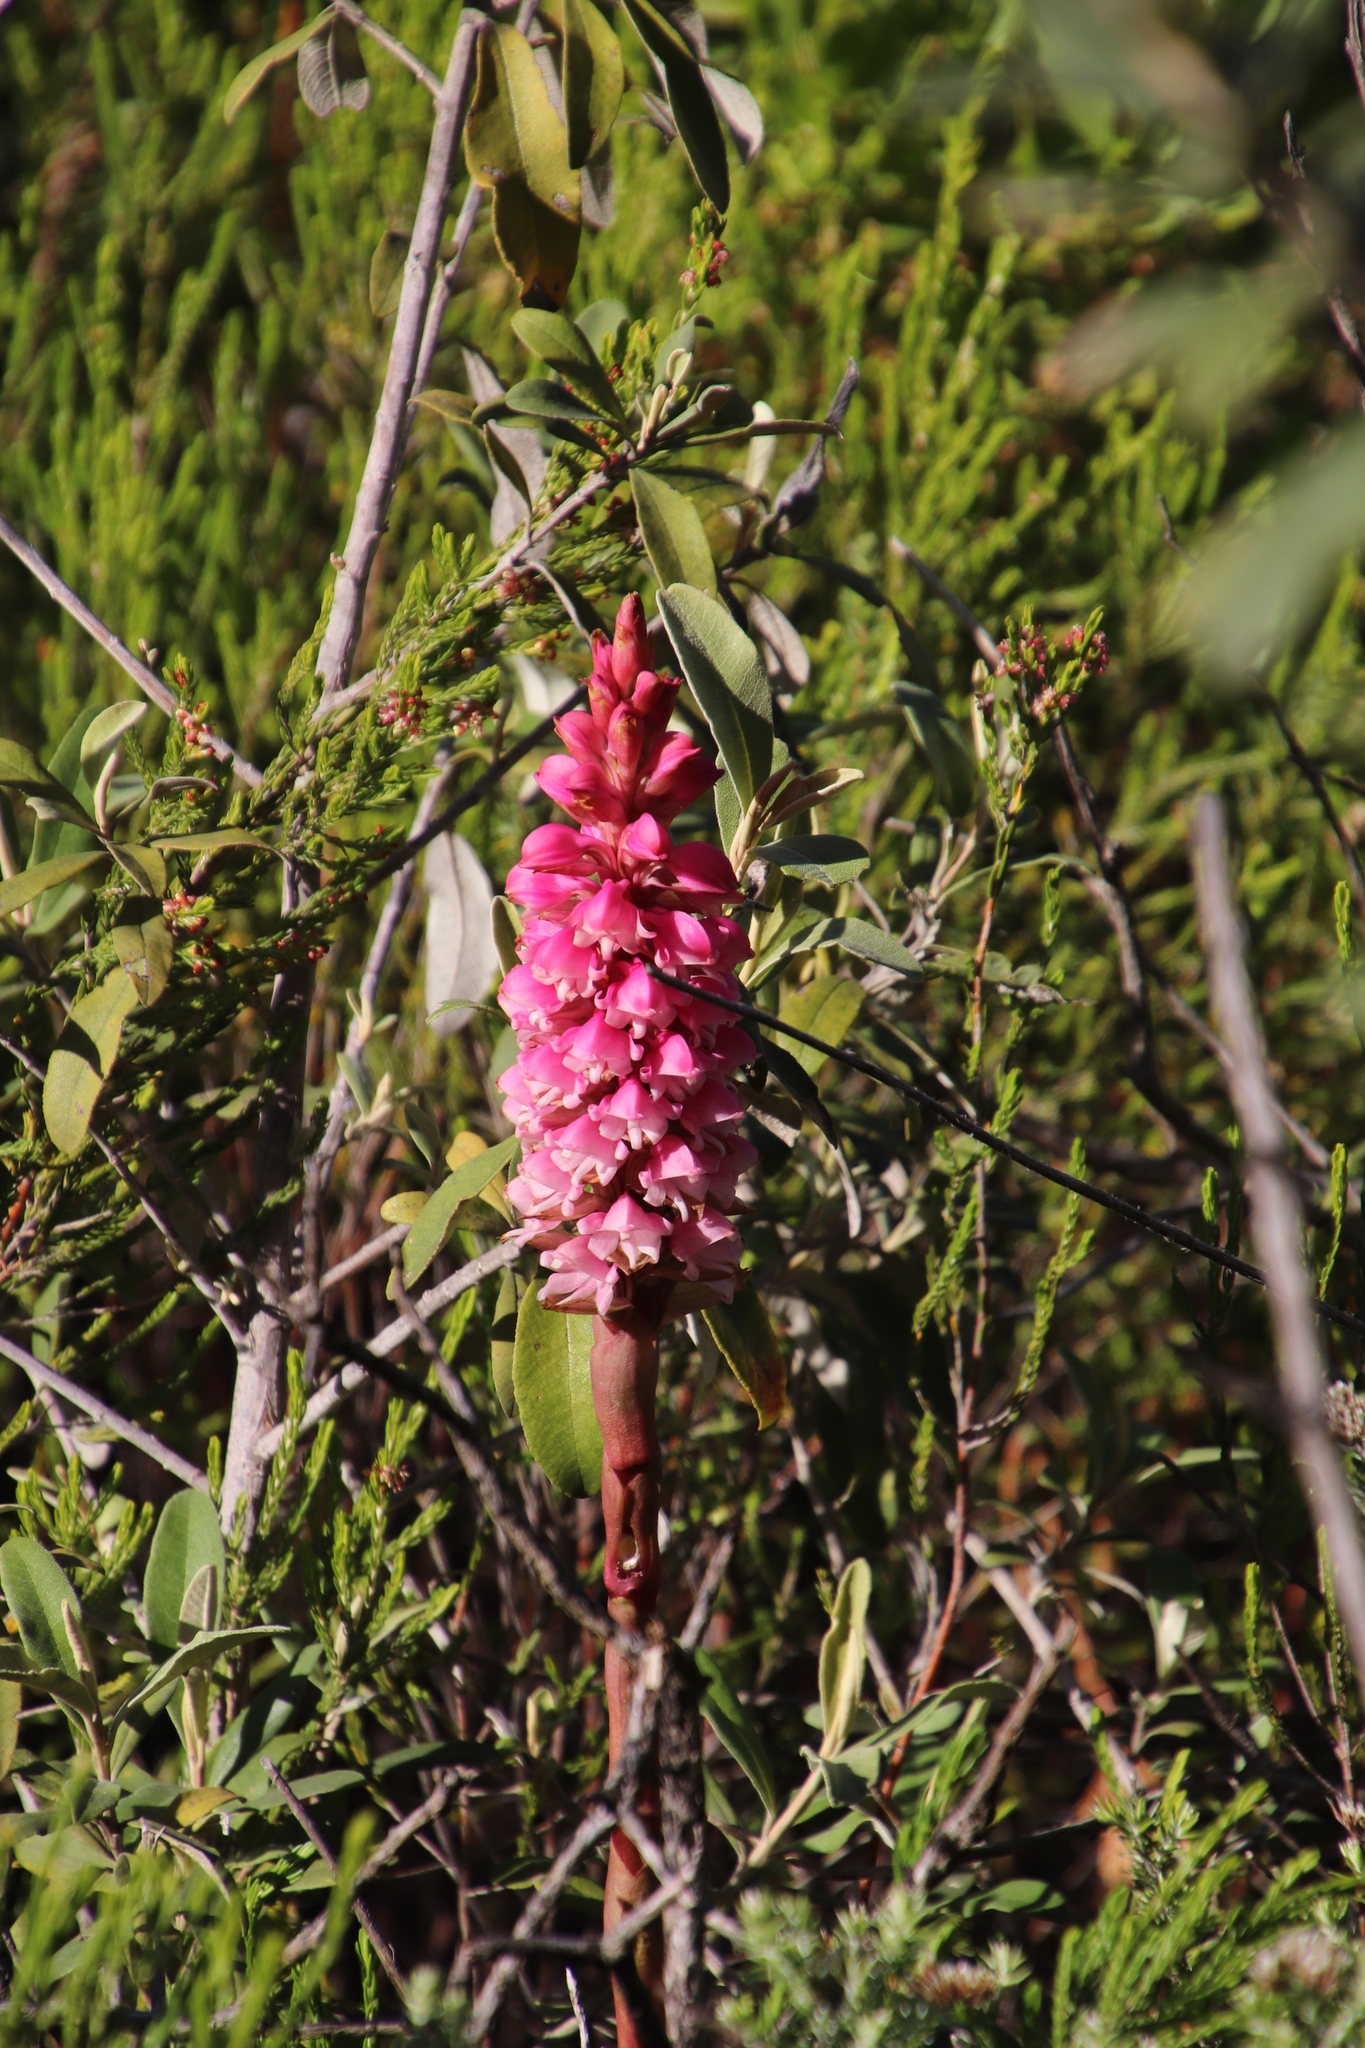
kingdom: Plantae
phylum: Tracheophyta
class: Liliopsida
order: Asparagales
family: Orchidaceae
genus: Satyrium
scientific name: Satyrium carneum
